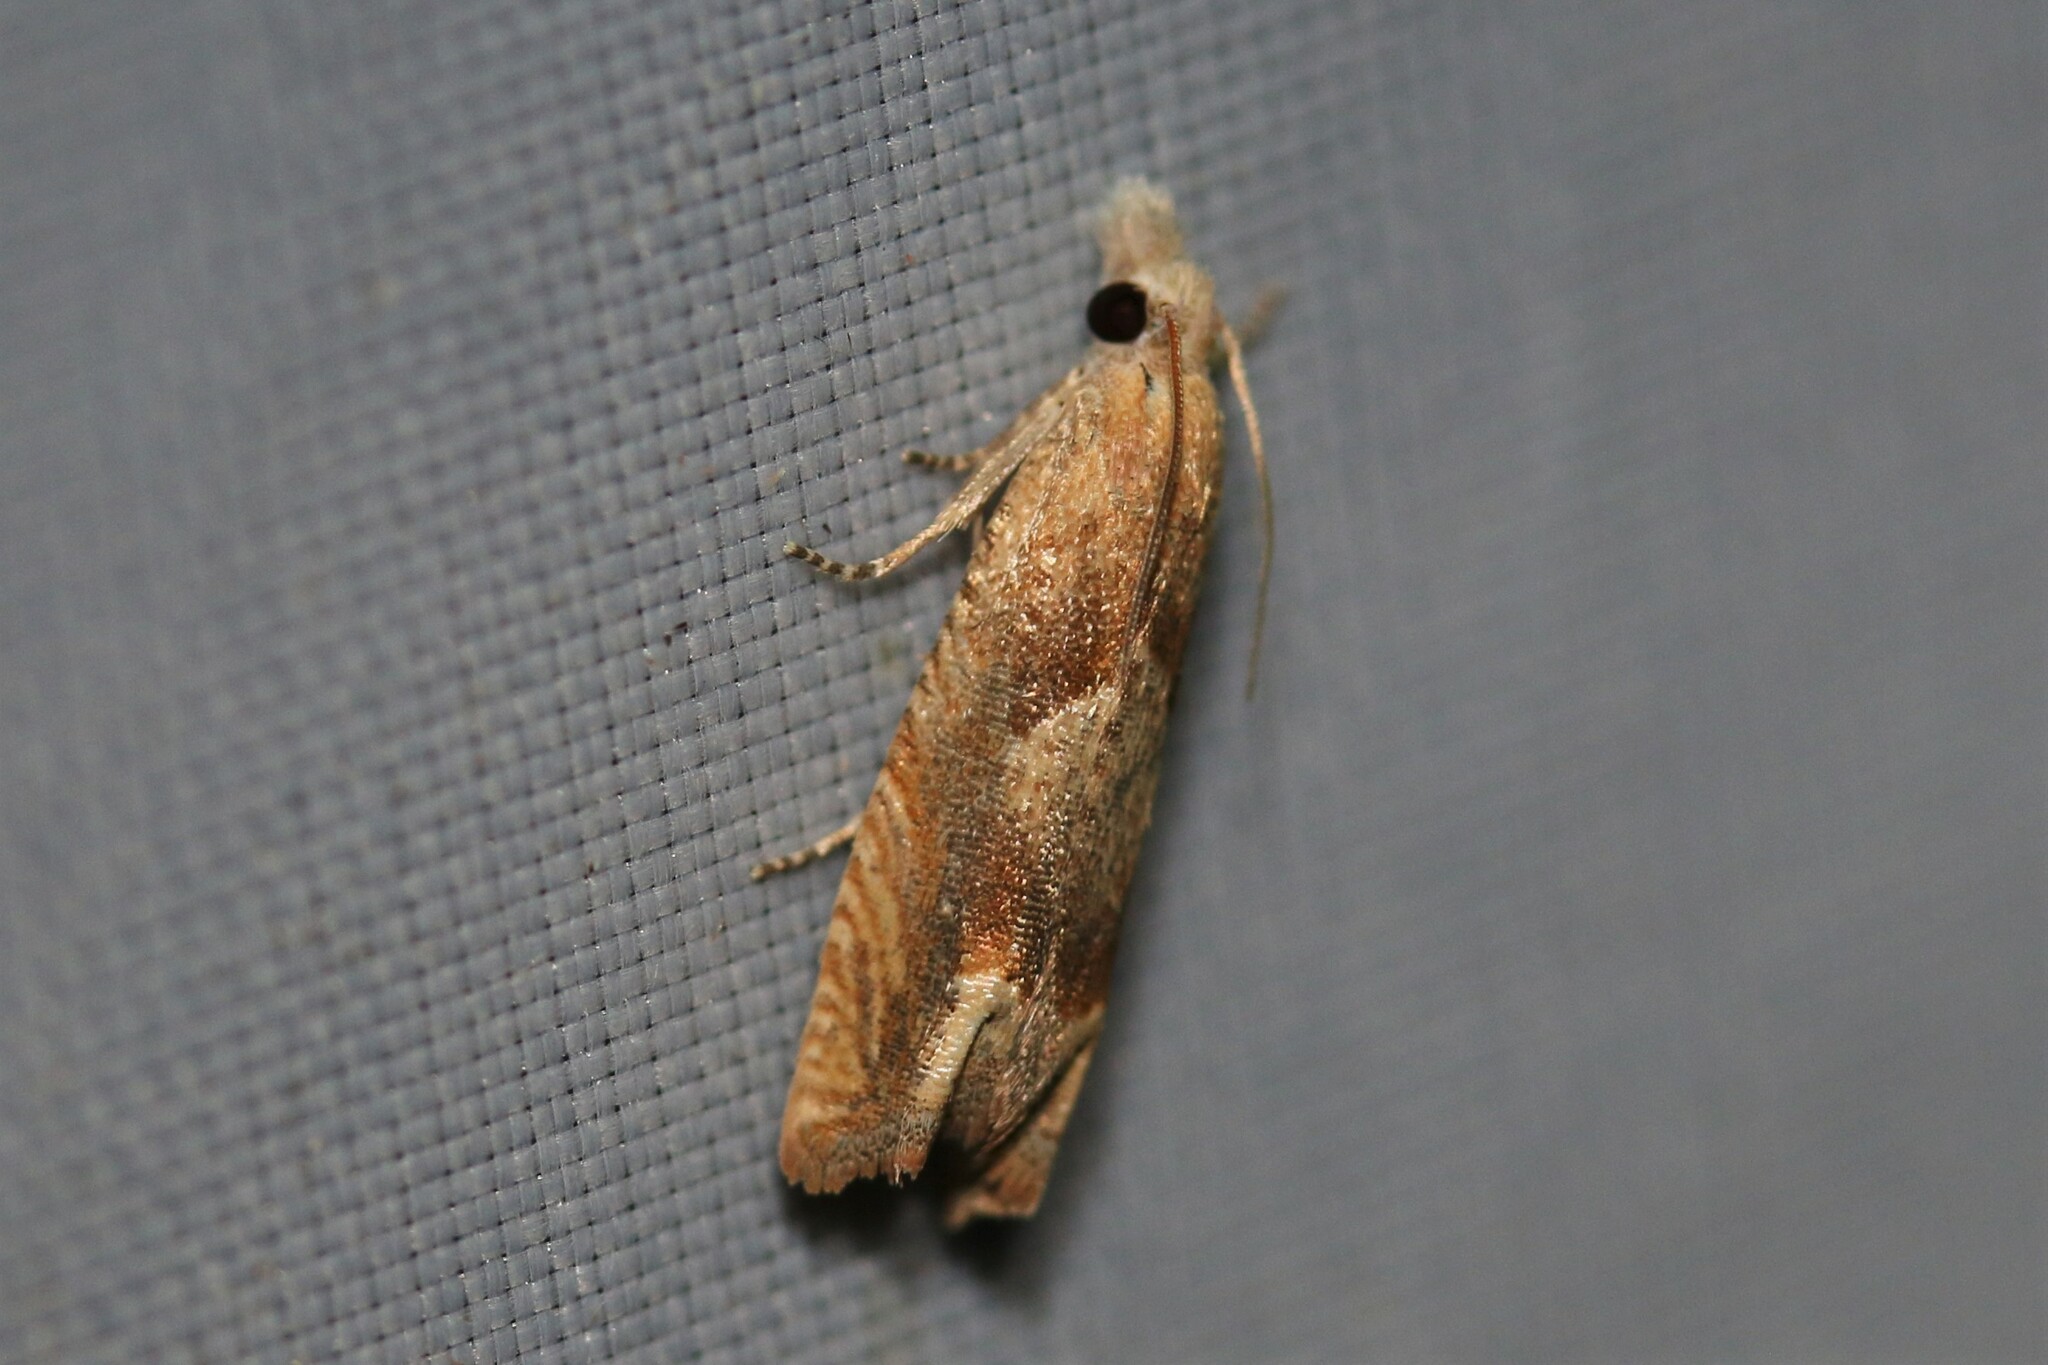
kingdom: Animalia
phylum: Arthropoda
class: Insecta
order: Lepidoptera
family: Tortricidae
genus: Eucosma
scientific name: Eucosma conterminana
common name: Pale lettuce bell
